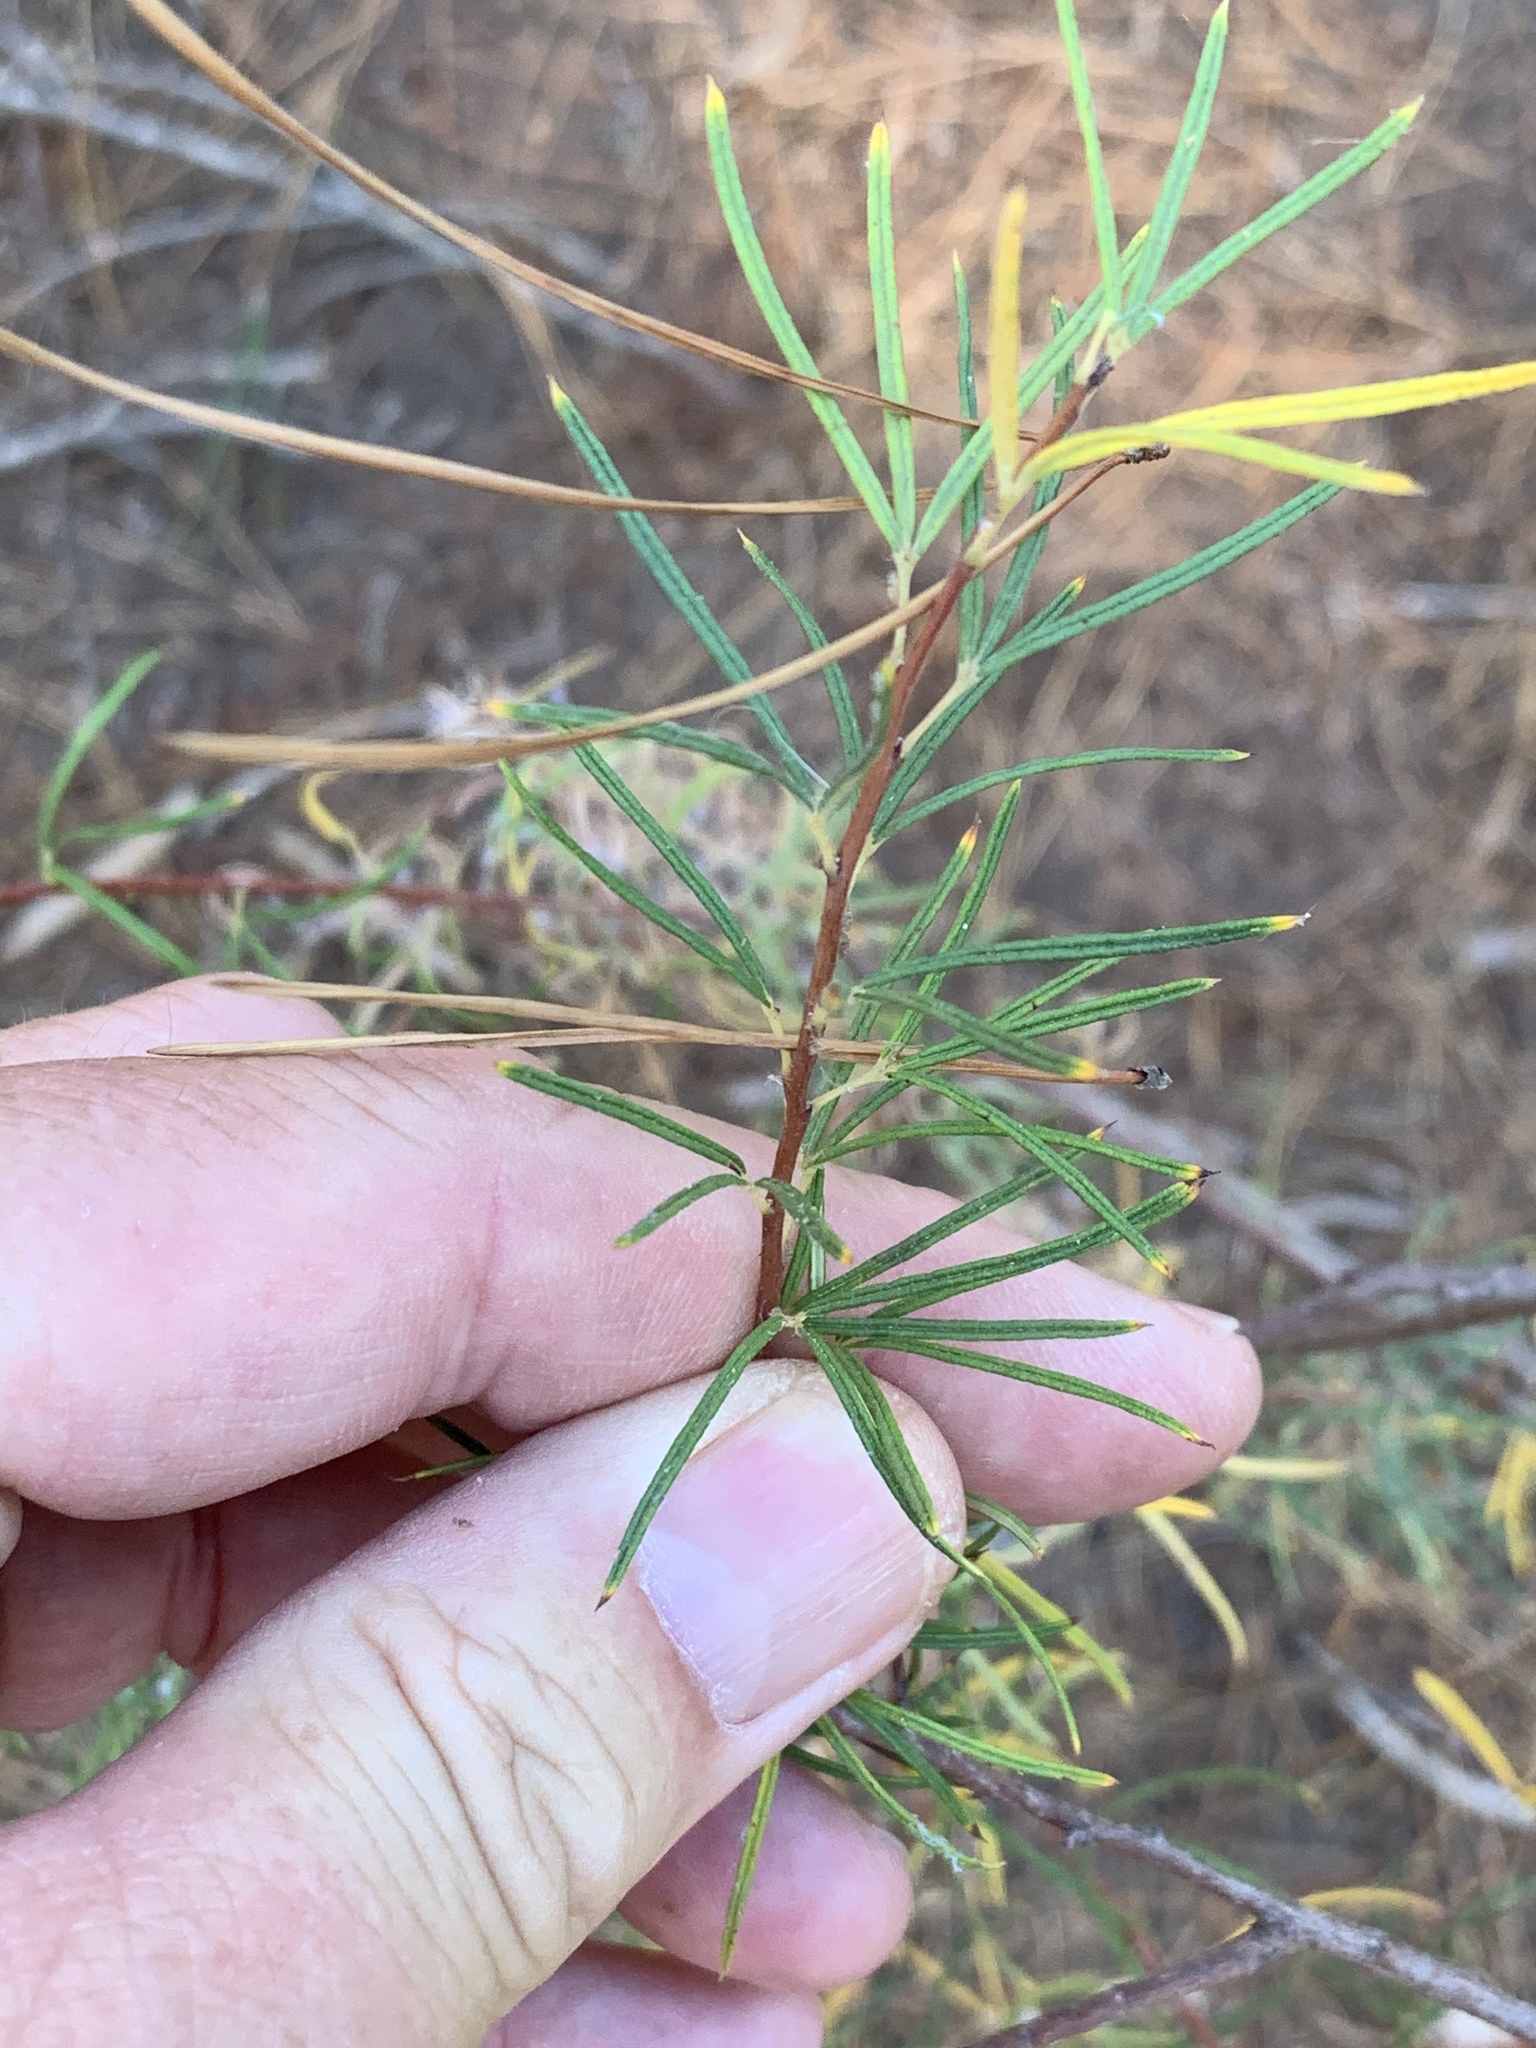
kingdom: Plantae
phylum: Tracheophyta
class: Magnoliopsida
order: Sapindales
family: Anacardiaceae
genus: Searsia
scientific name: Searsia rosmarinifolia
